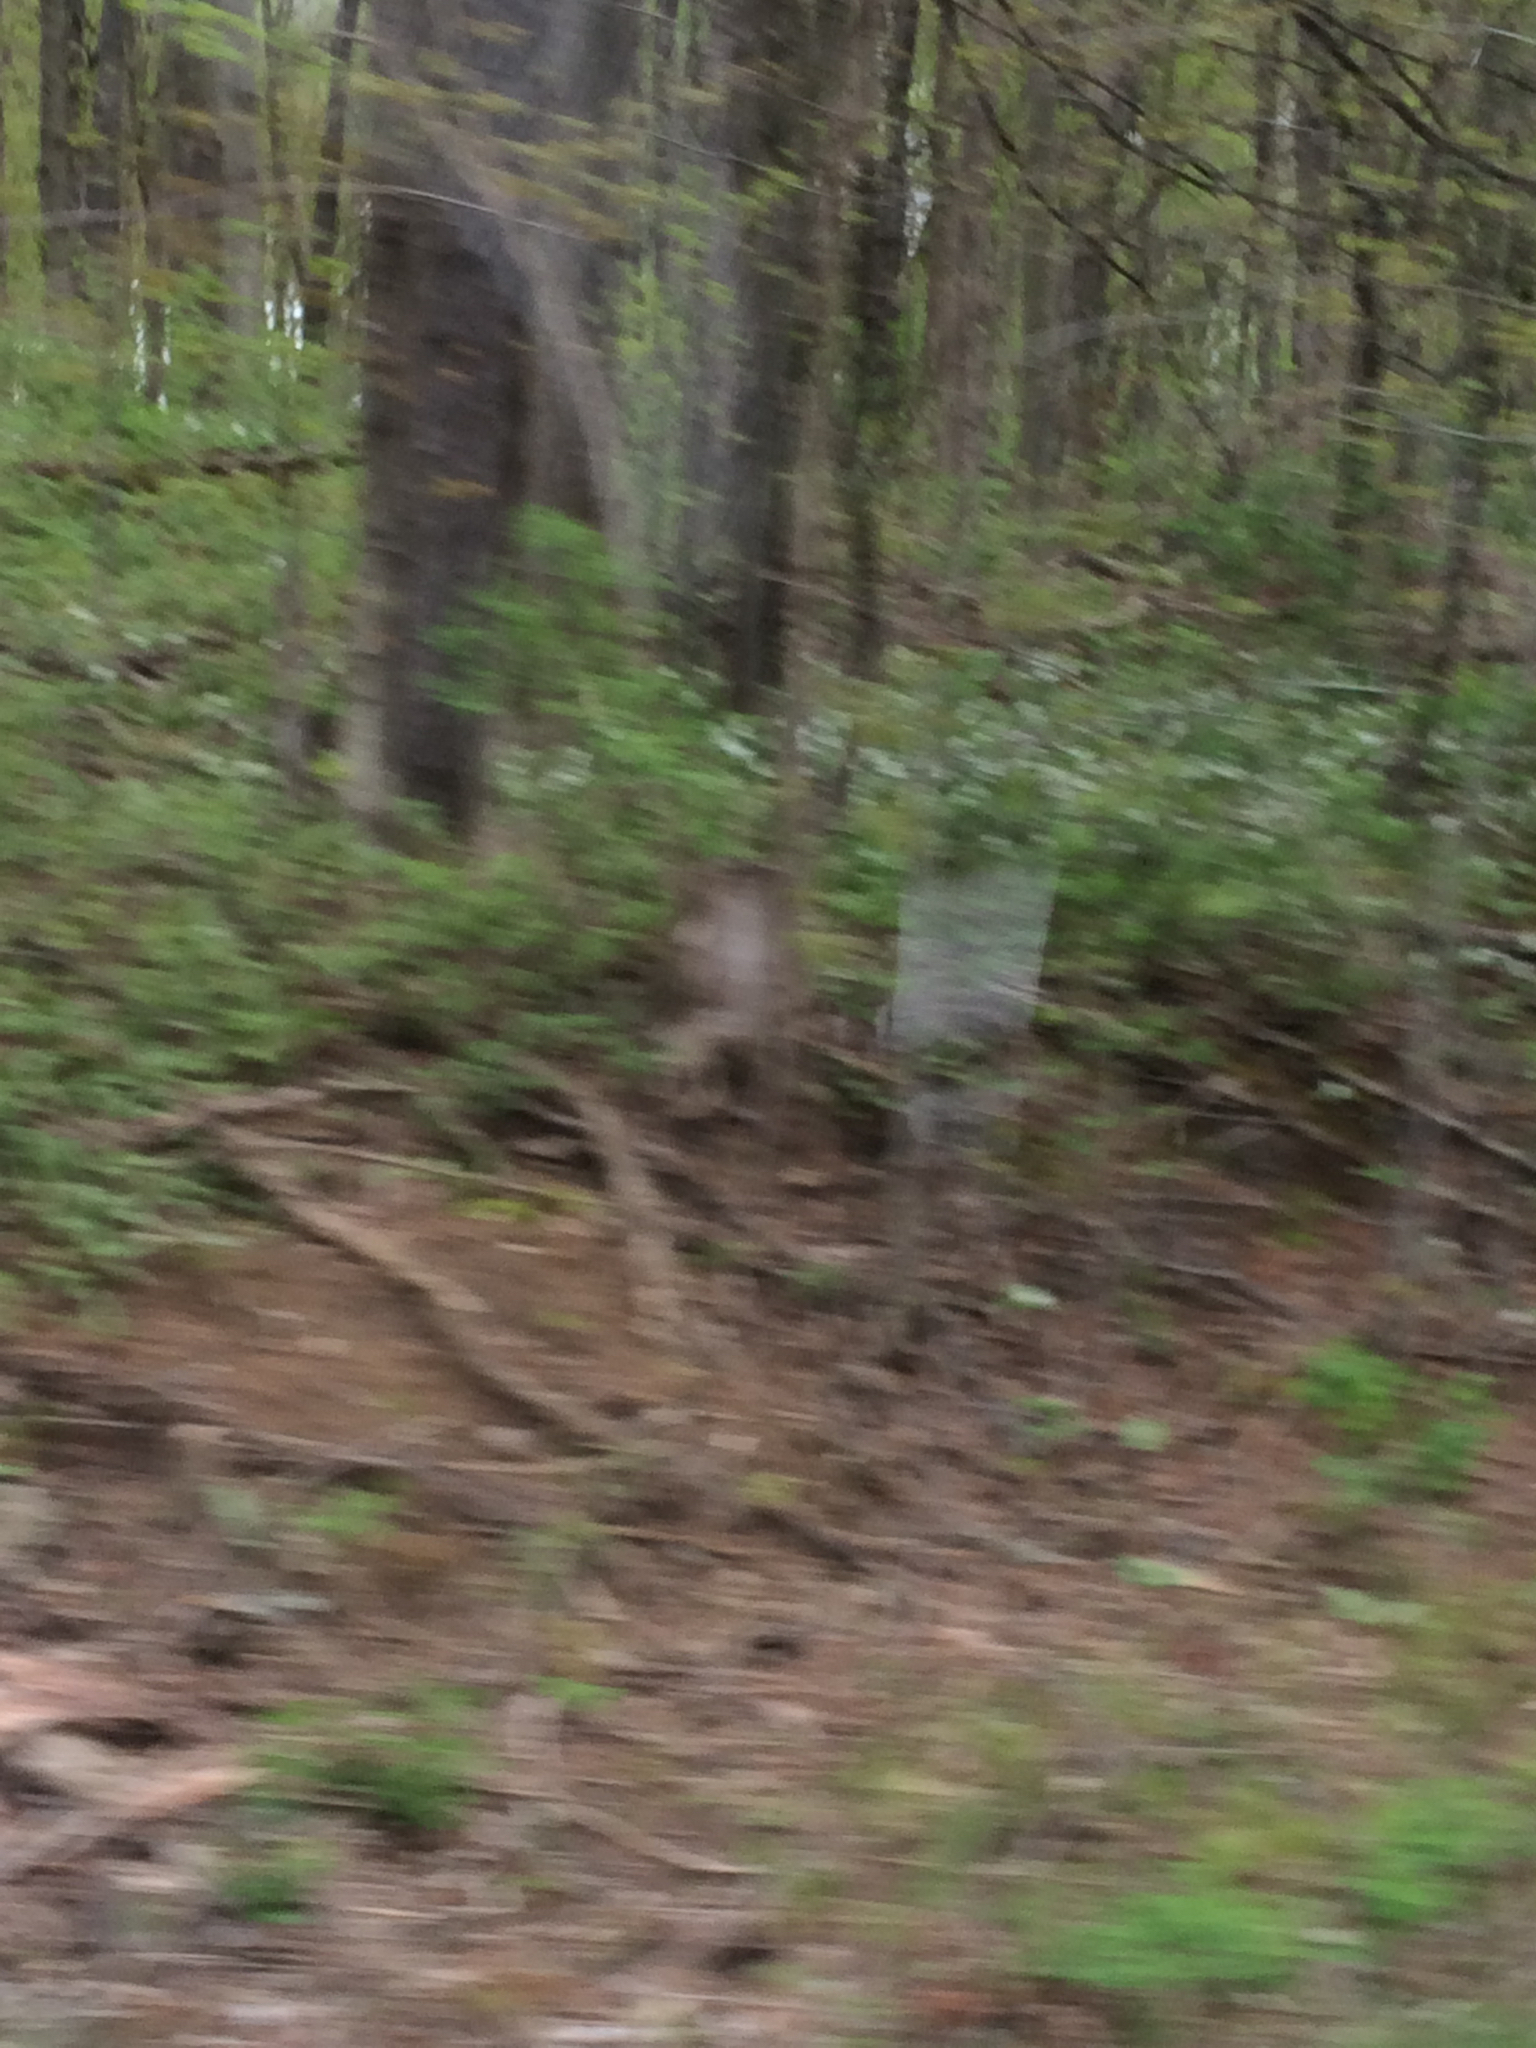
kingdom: Plantae
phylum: Tracheophyta
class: Liliopsida
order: Liliales
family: Melanthiaceae
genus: Trillium
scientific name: Trillium grandiflorum
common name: Great white trillium
